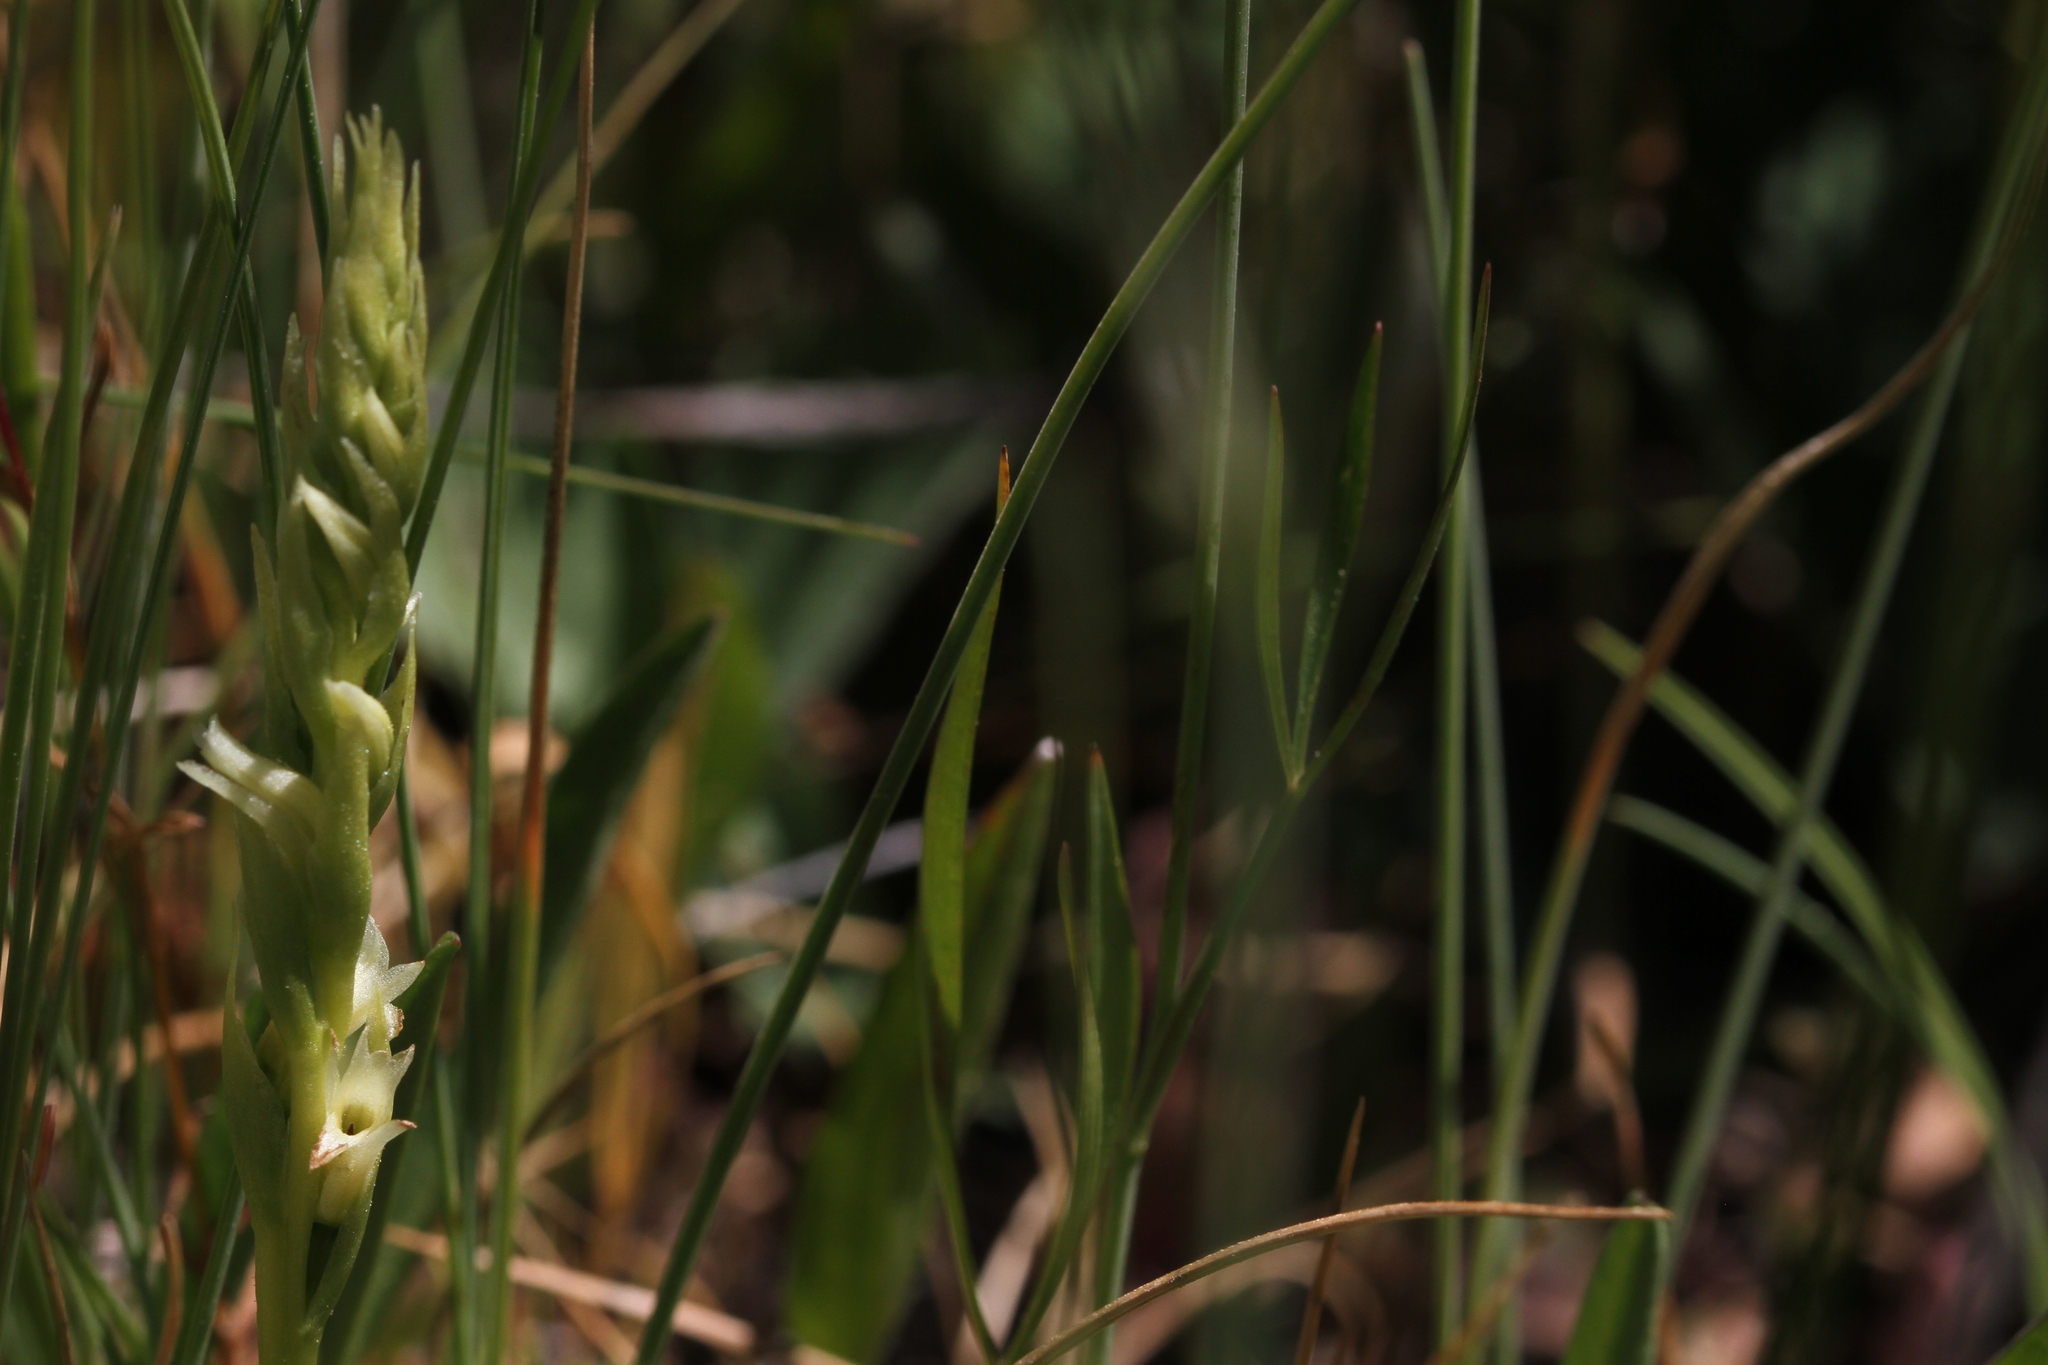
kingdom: Plantae
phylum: Tracheophyta
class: Liliopsida
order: Asparagales
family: Orchidaceae
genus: Spiranthes
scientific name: Spiranthes stellata
